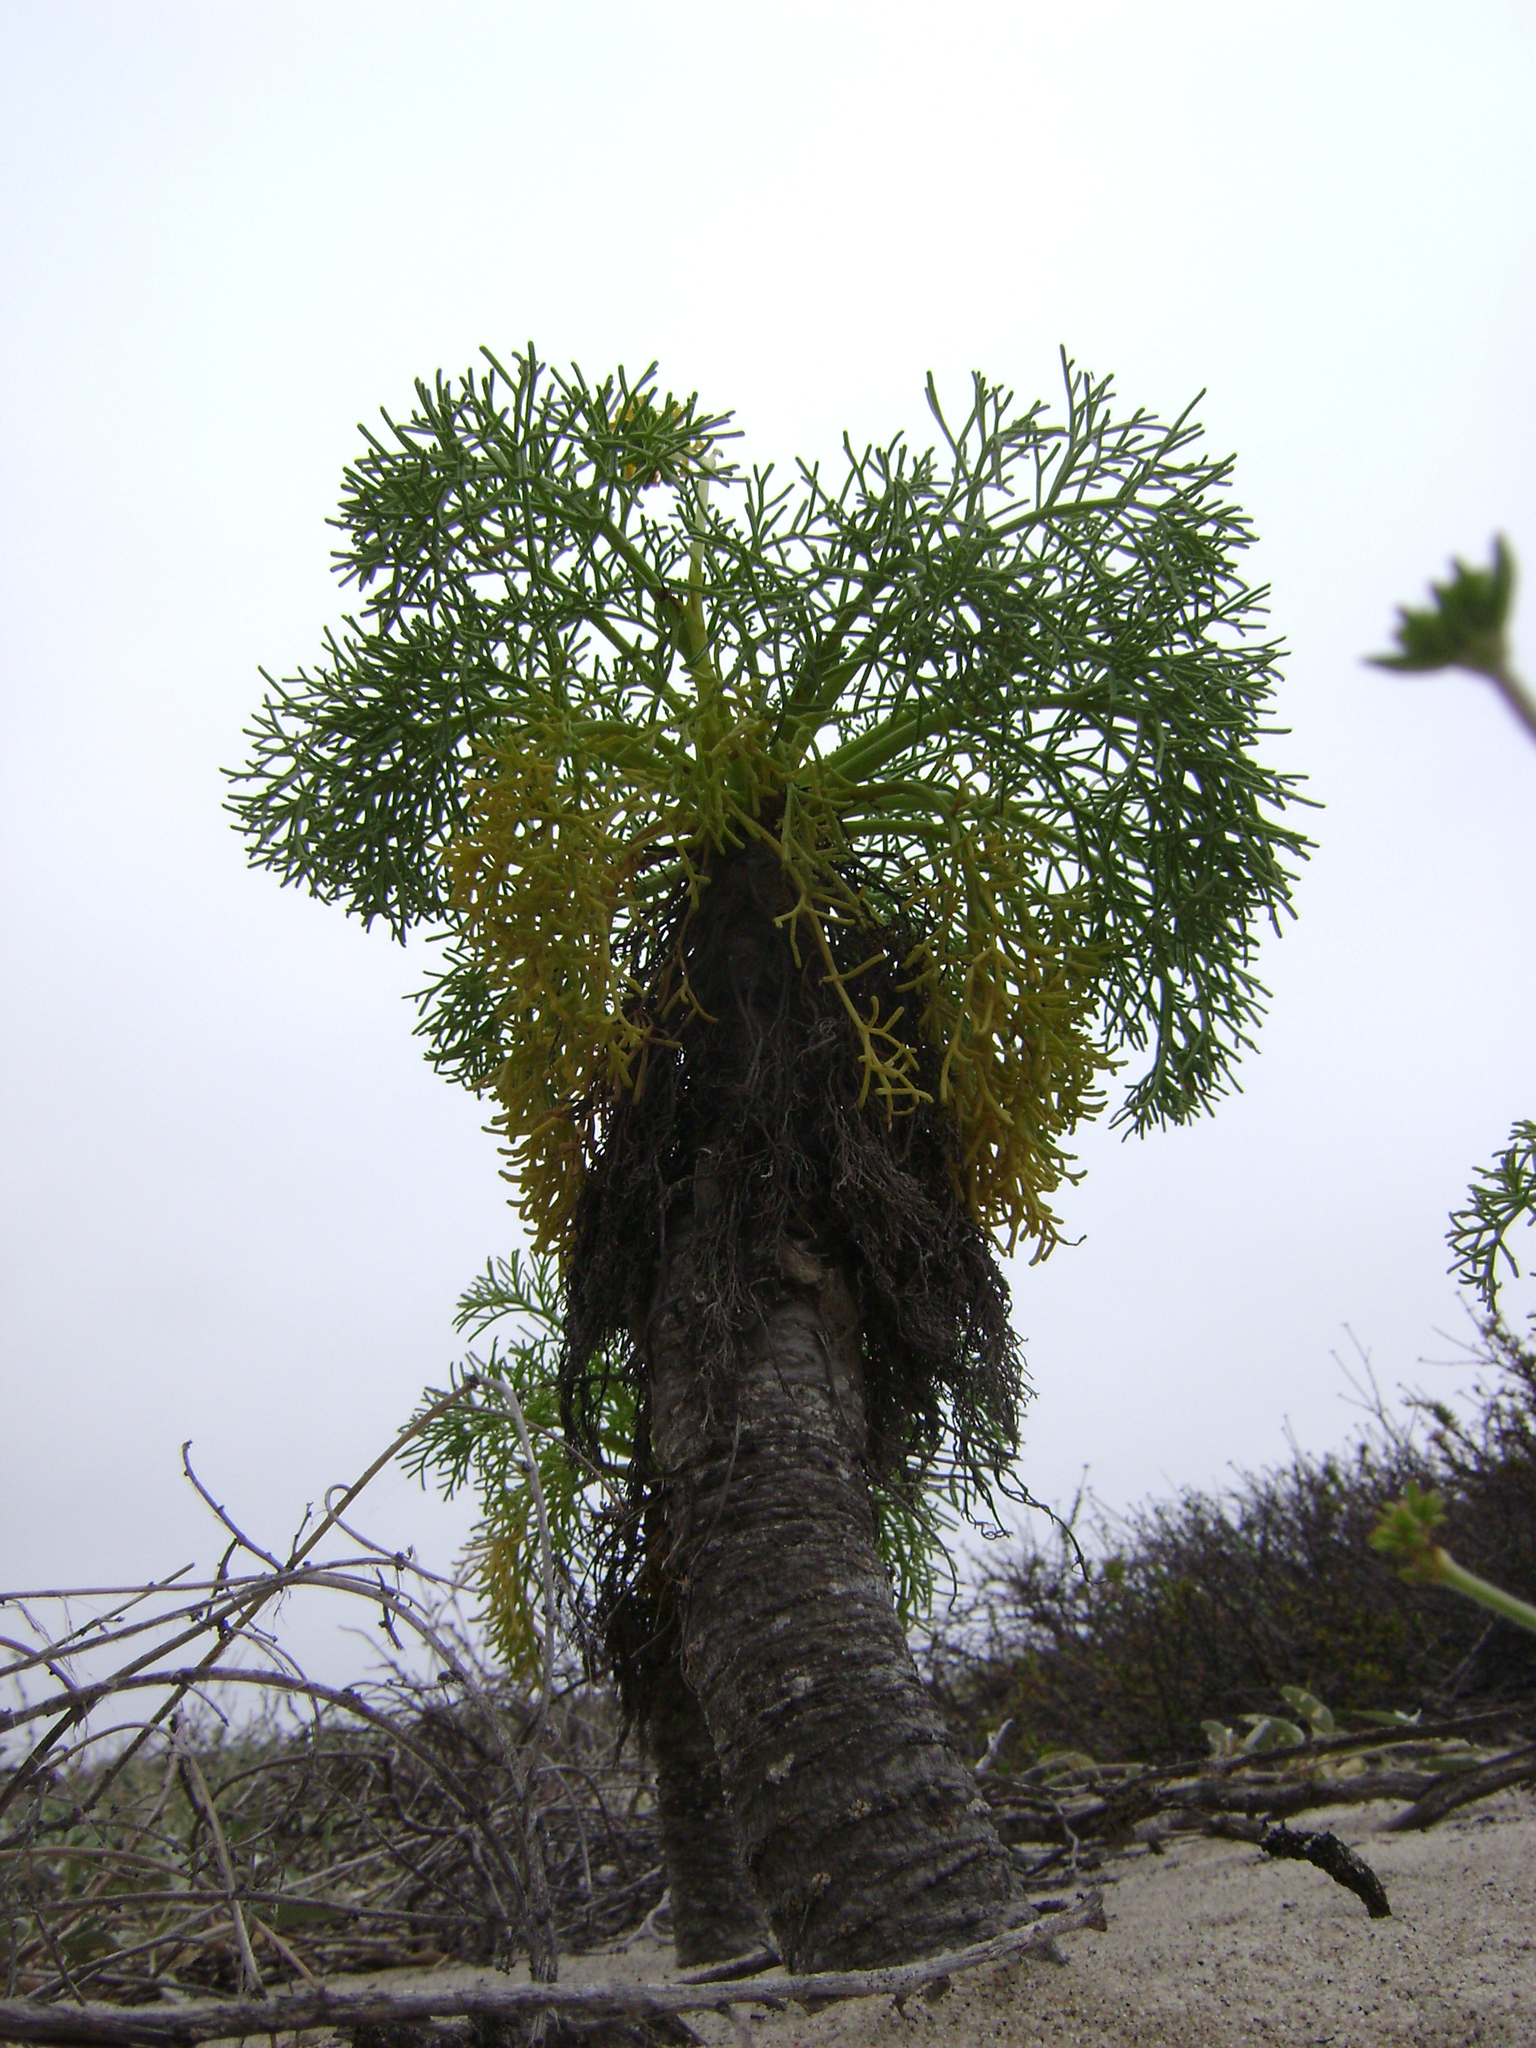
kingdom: Plantae
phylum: Tracheophyta
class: Magnoliopsida
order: Asterales
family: Asteraceae
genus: Coreopsis
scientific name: Coreopsis gigantea
